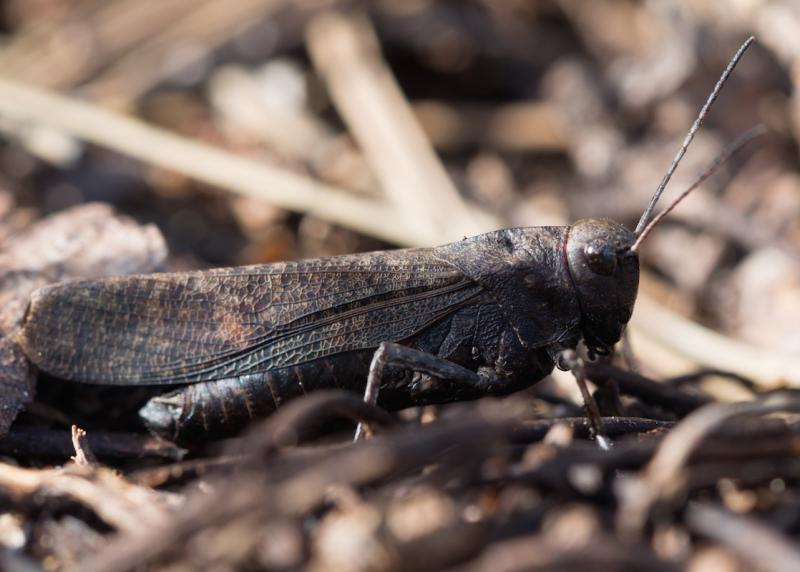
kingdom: Animalia
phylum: Arthropoda
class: Insecta
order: Orthoptera
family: Acrididae
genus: Psophus
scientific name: Psophus stridulus
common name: Rattle grasshopper
